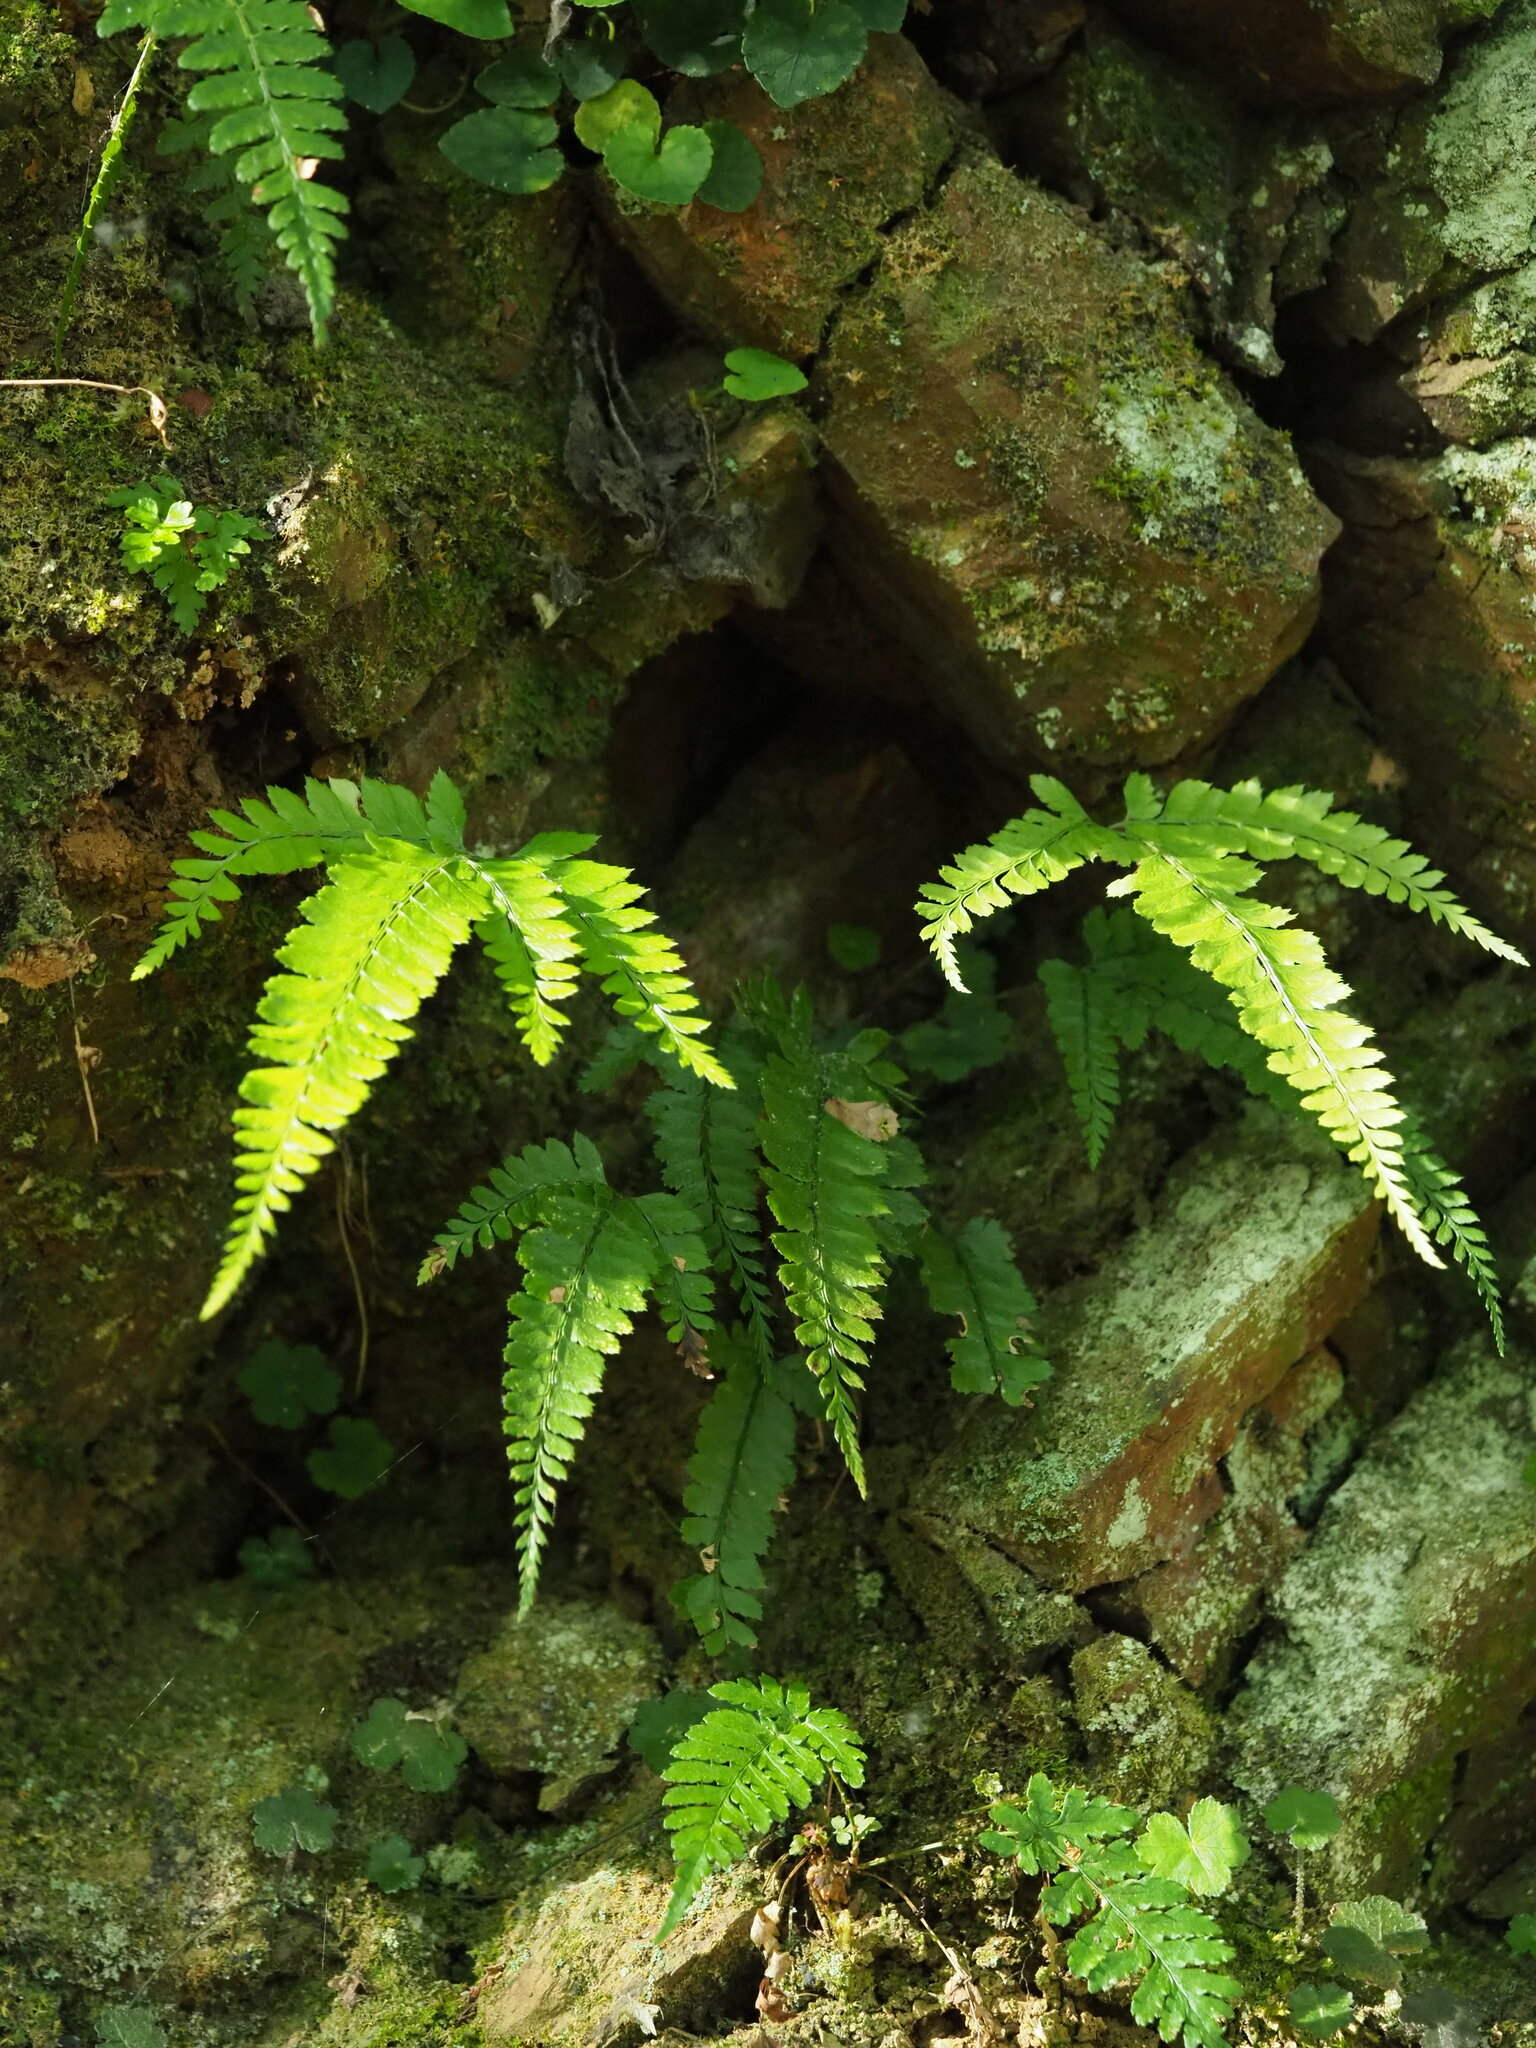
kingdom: Plantae
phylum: Tracheophyta
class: Polypodiopsida
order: Polypodiales
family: Dryopteridaceae
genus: Arachniodes
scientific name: Arachniodes rhomboidea
